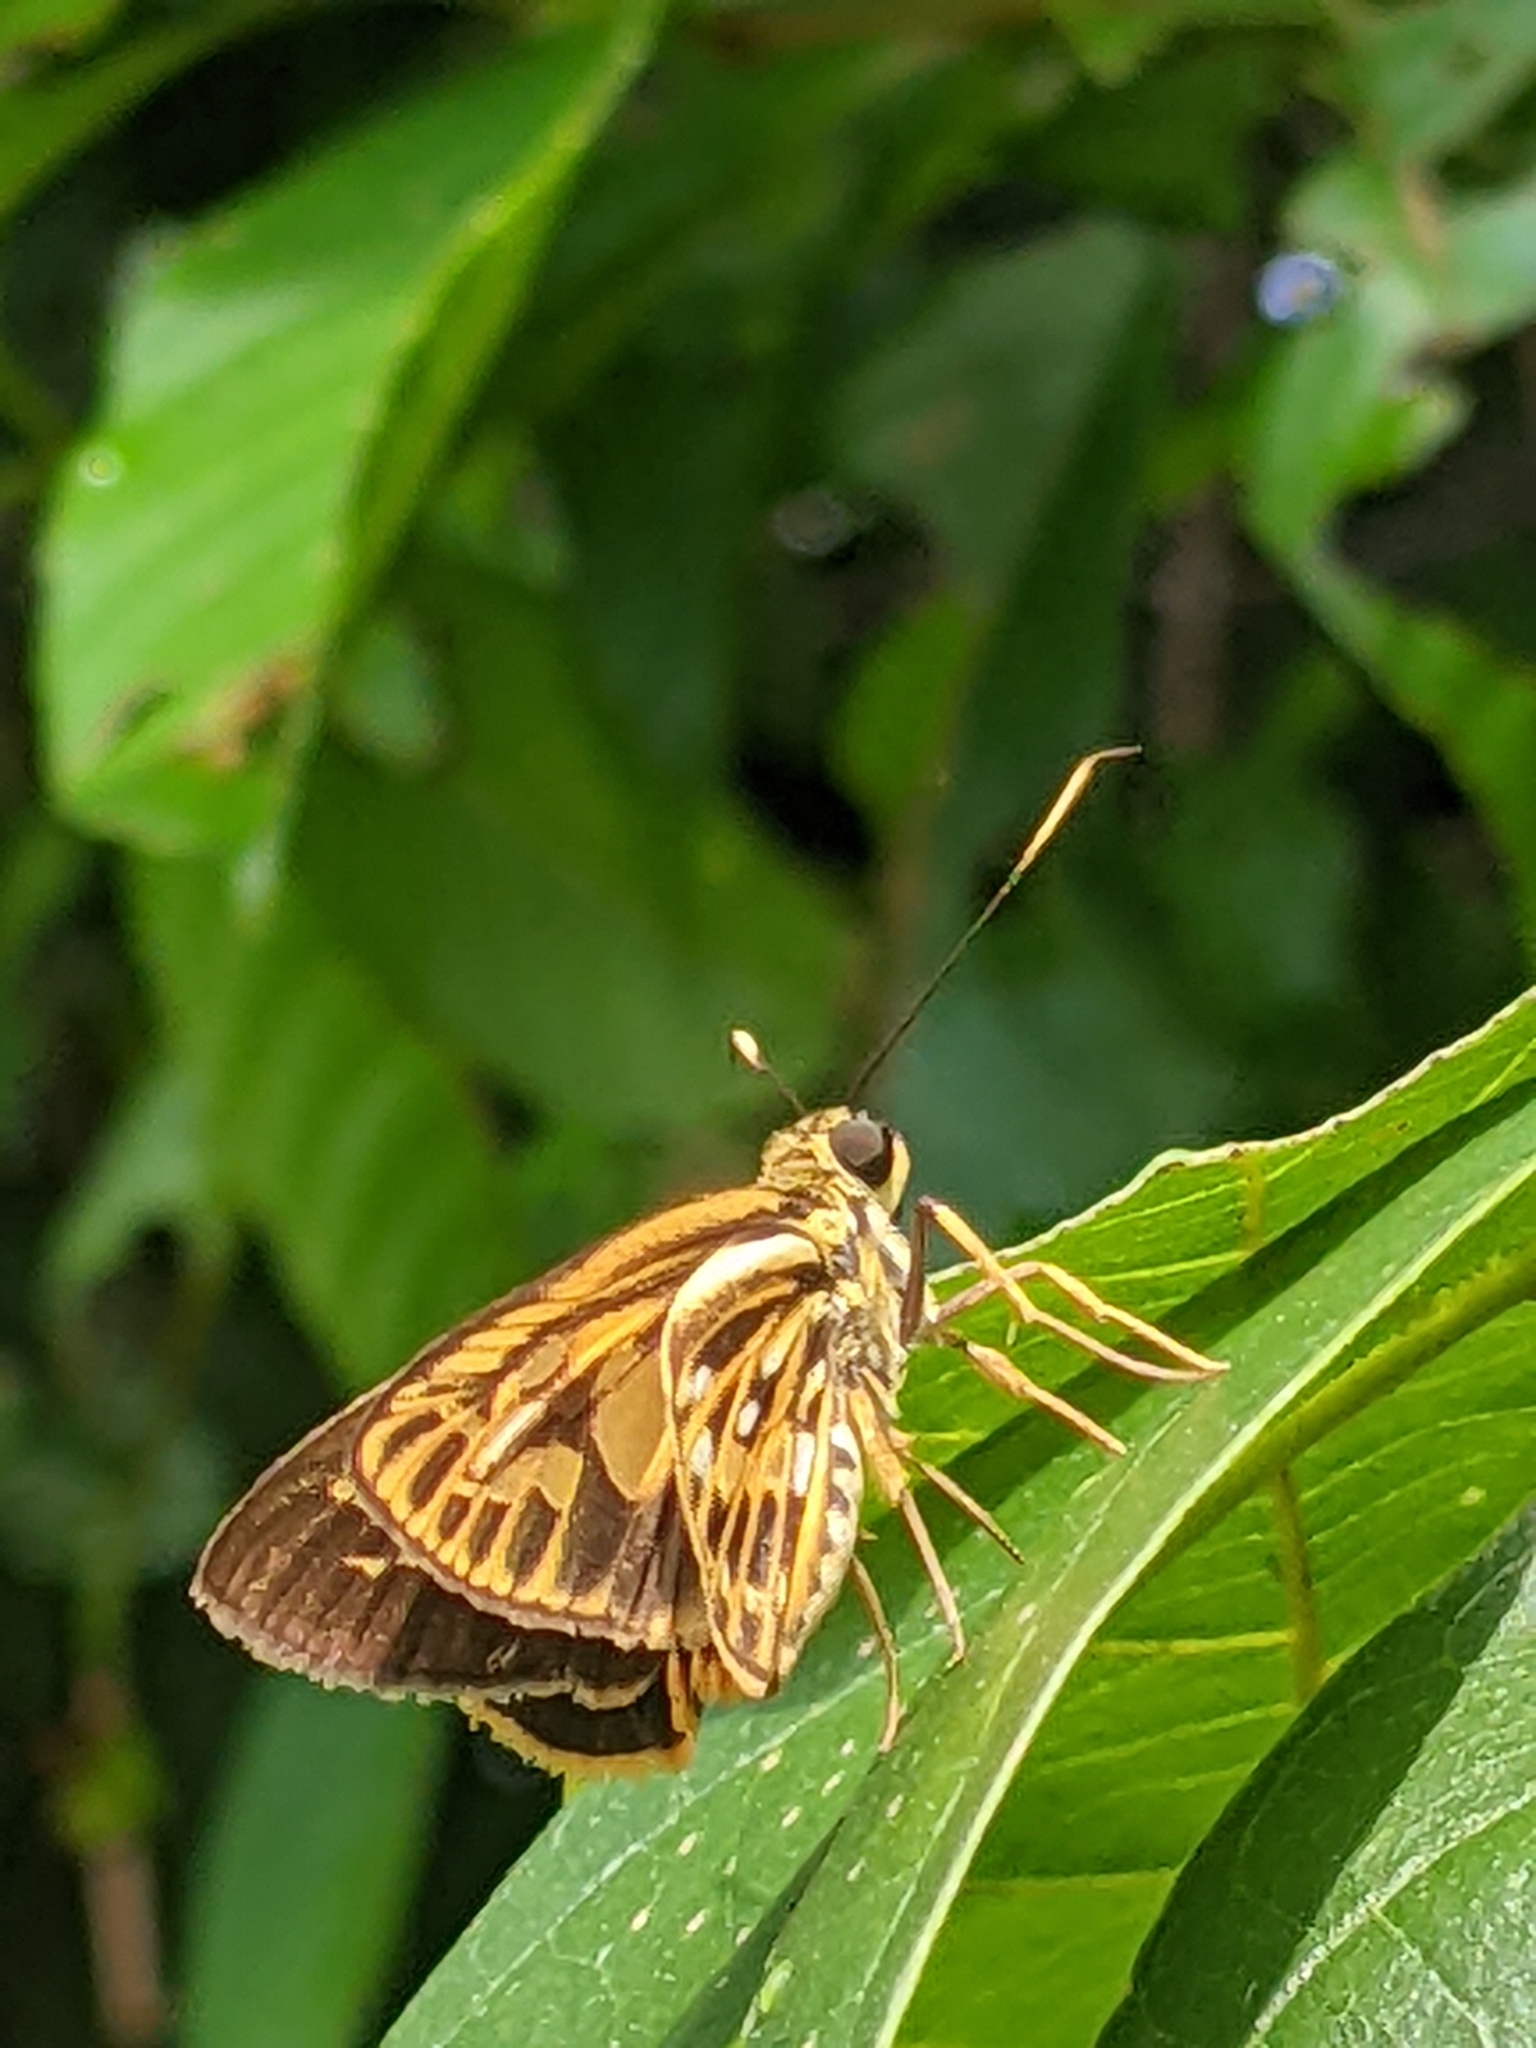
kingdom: Animalia
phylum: Arthropoda
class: Insecta
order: Lepidoptera
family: Hesperiidae
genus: Pyroneura
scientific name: Pyroneura latoia
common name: Yellow vein lancer
